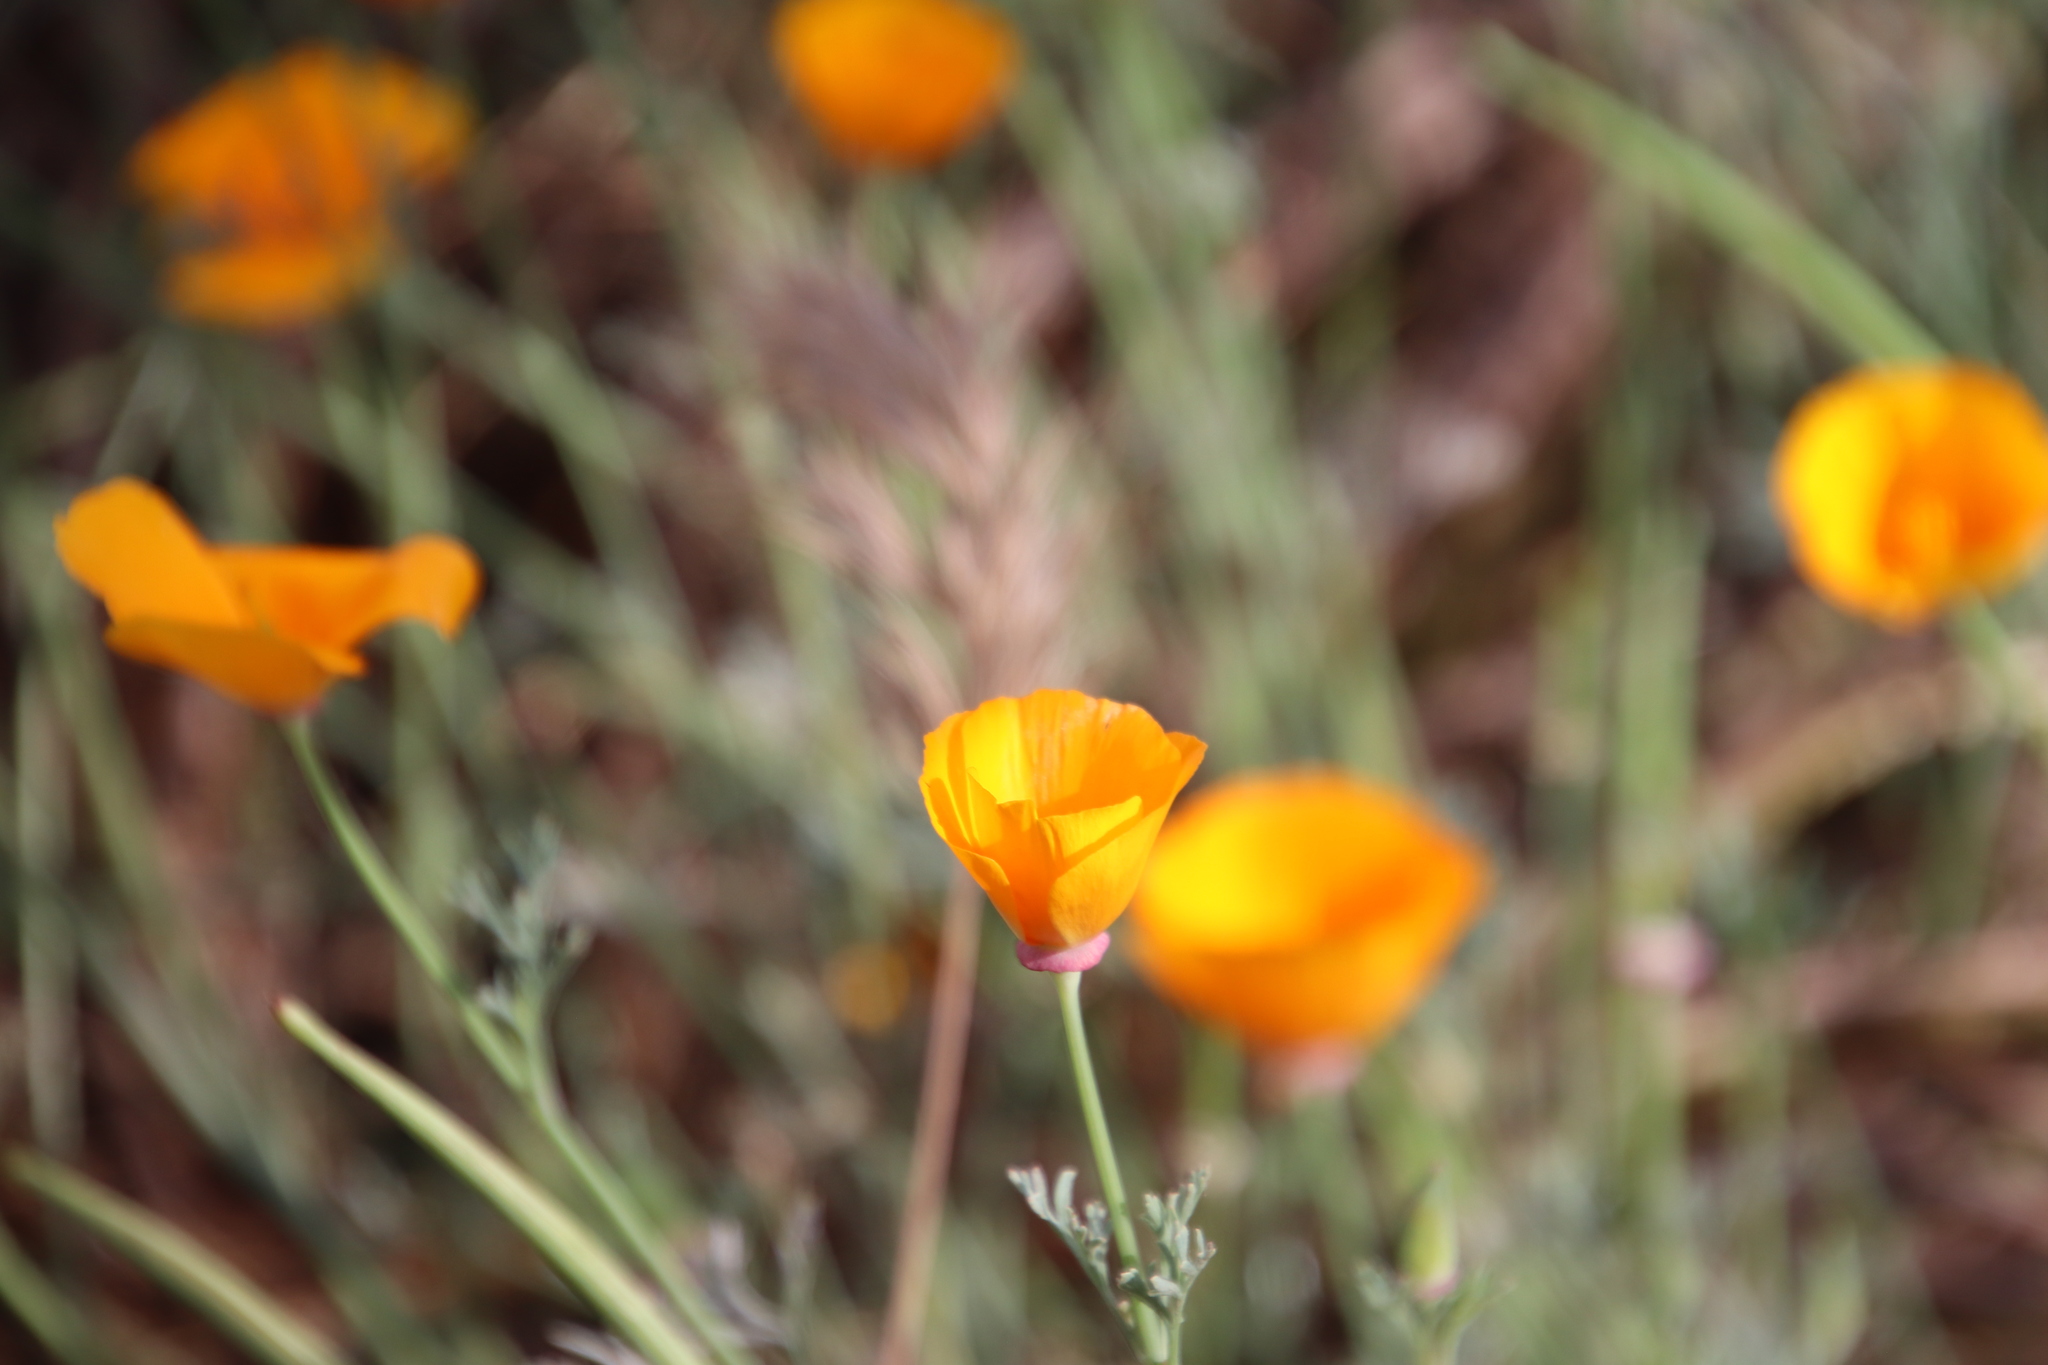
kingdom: Plantae
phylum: Tracheophyta
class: Magnoliopsida
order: Ranunculales
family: Papaveraceae
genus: Eschscholzia
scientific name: Eschscholzia californica
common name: California poppy
